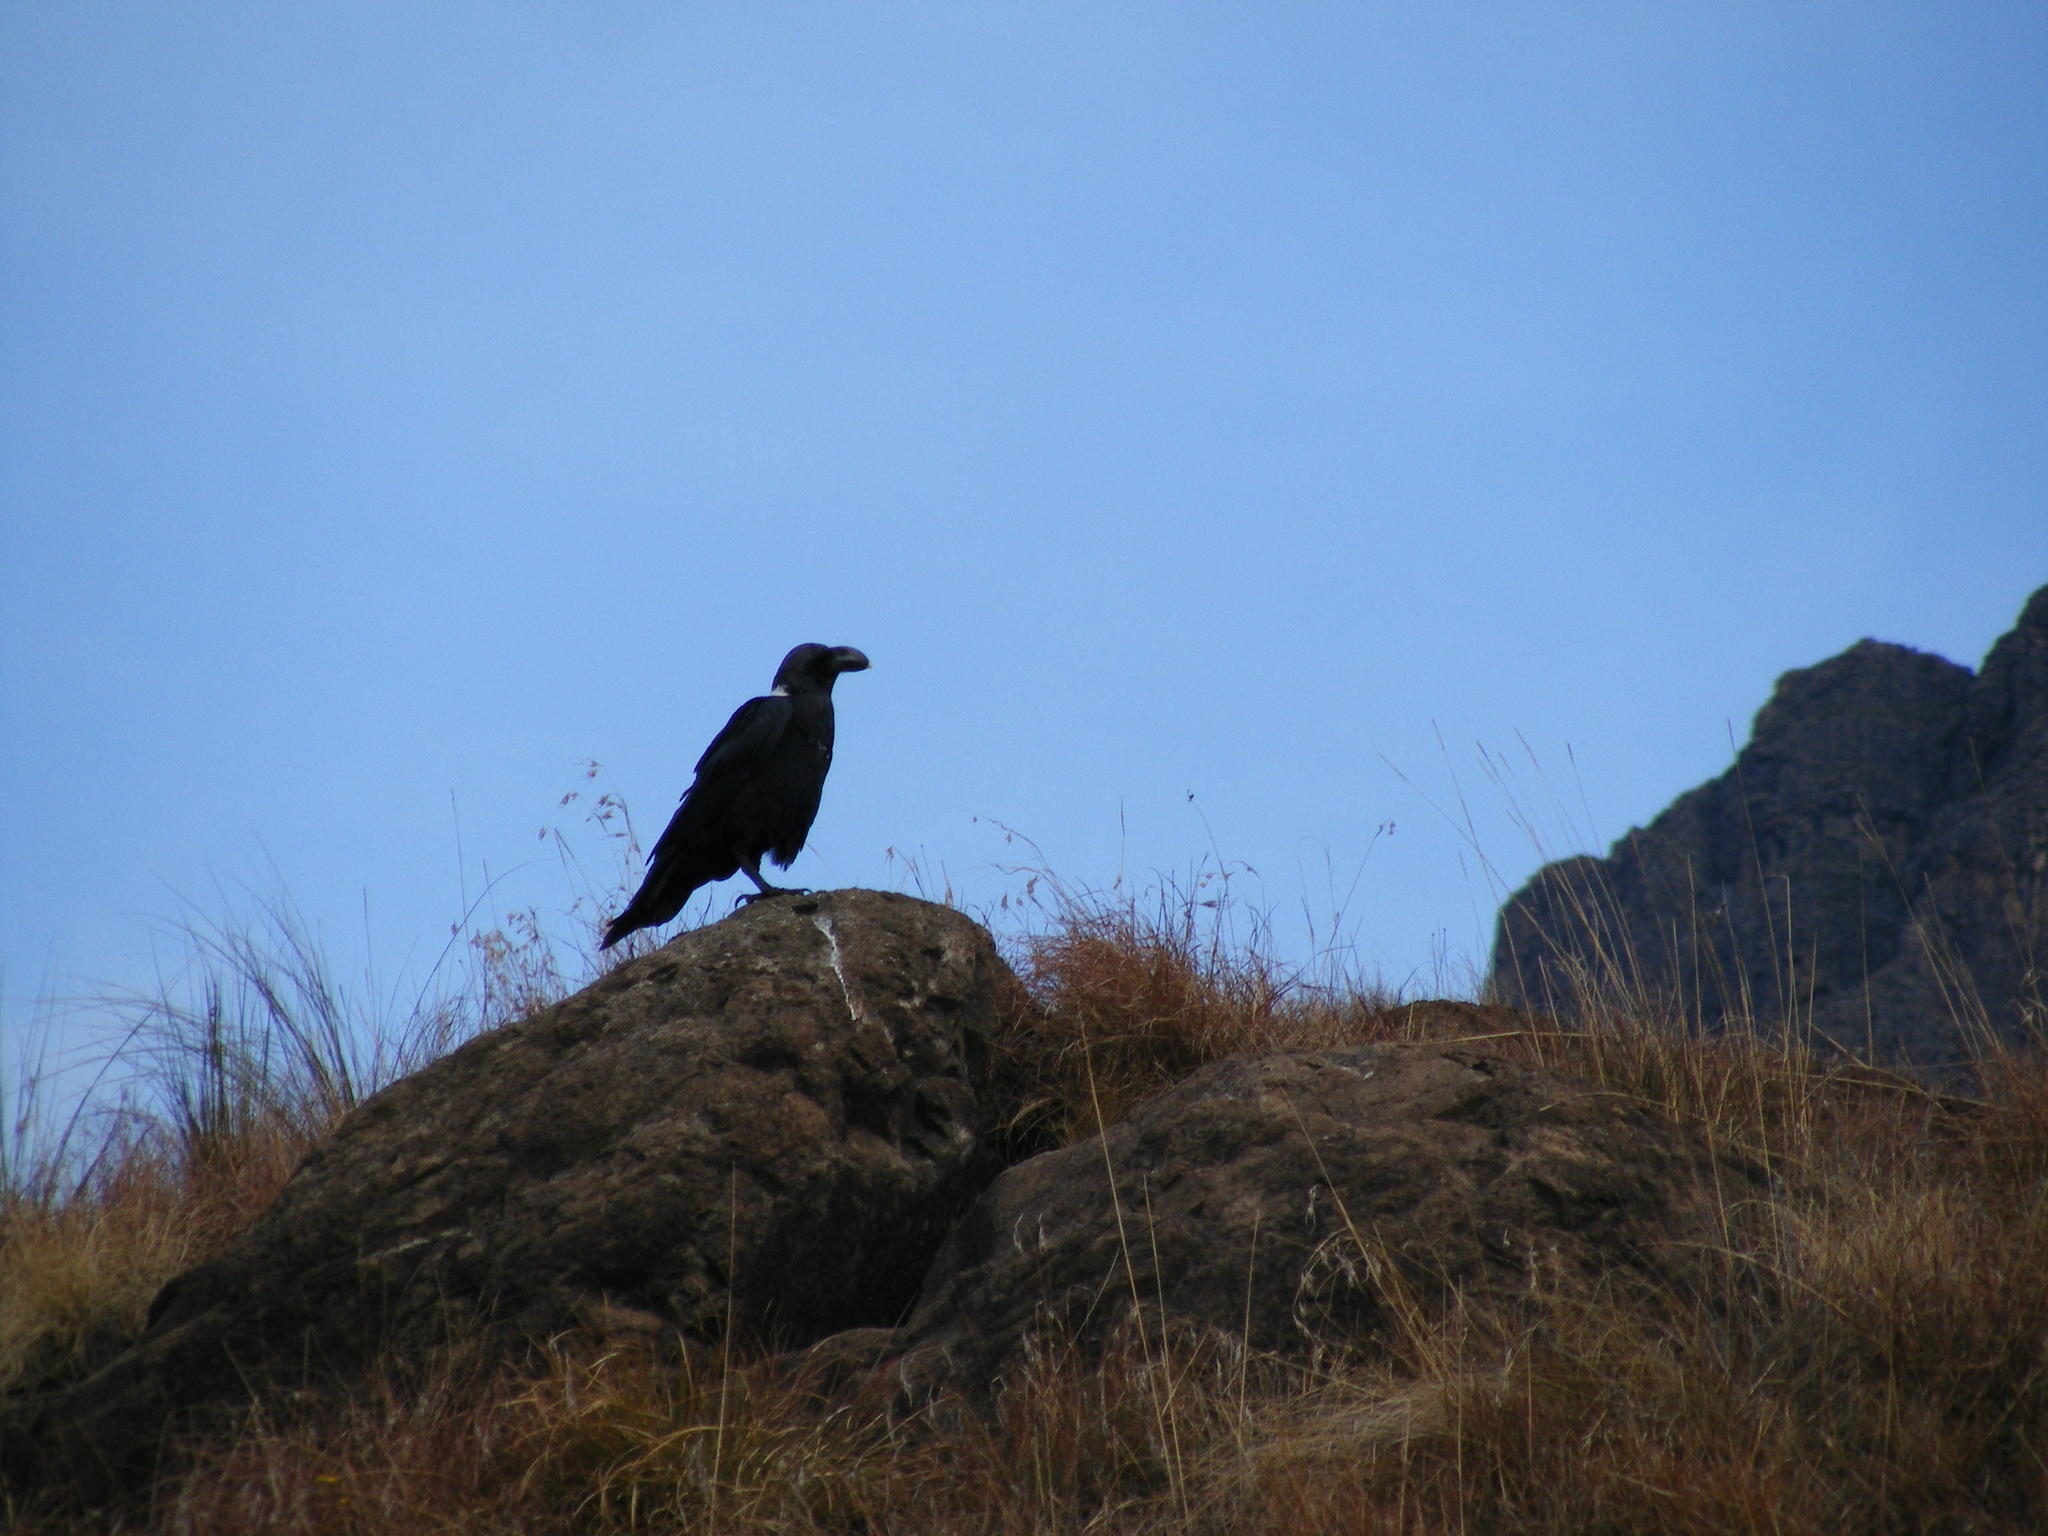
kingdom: Animalia
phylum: Chordata
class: Aves
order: Passeriformes
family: Corvidae
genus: Corvus
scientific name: Corvus albicollis
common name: White-necked raven
